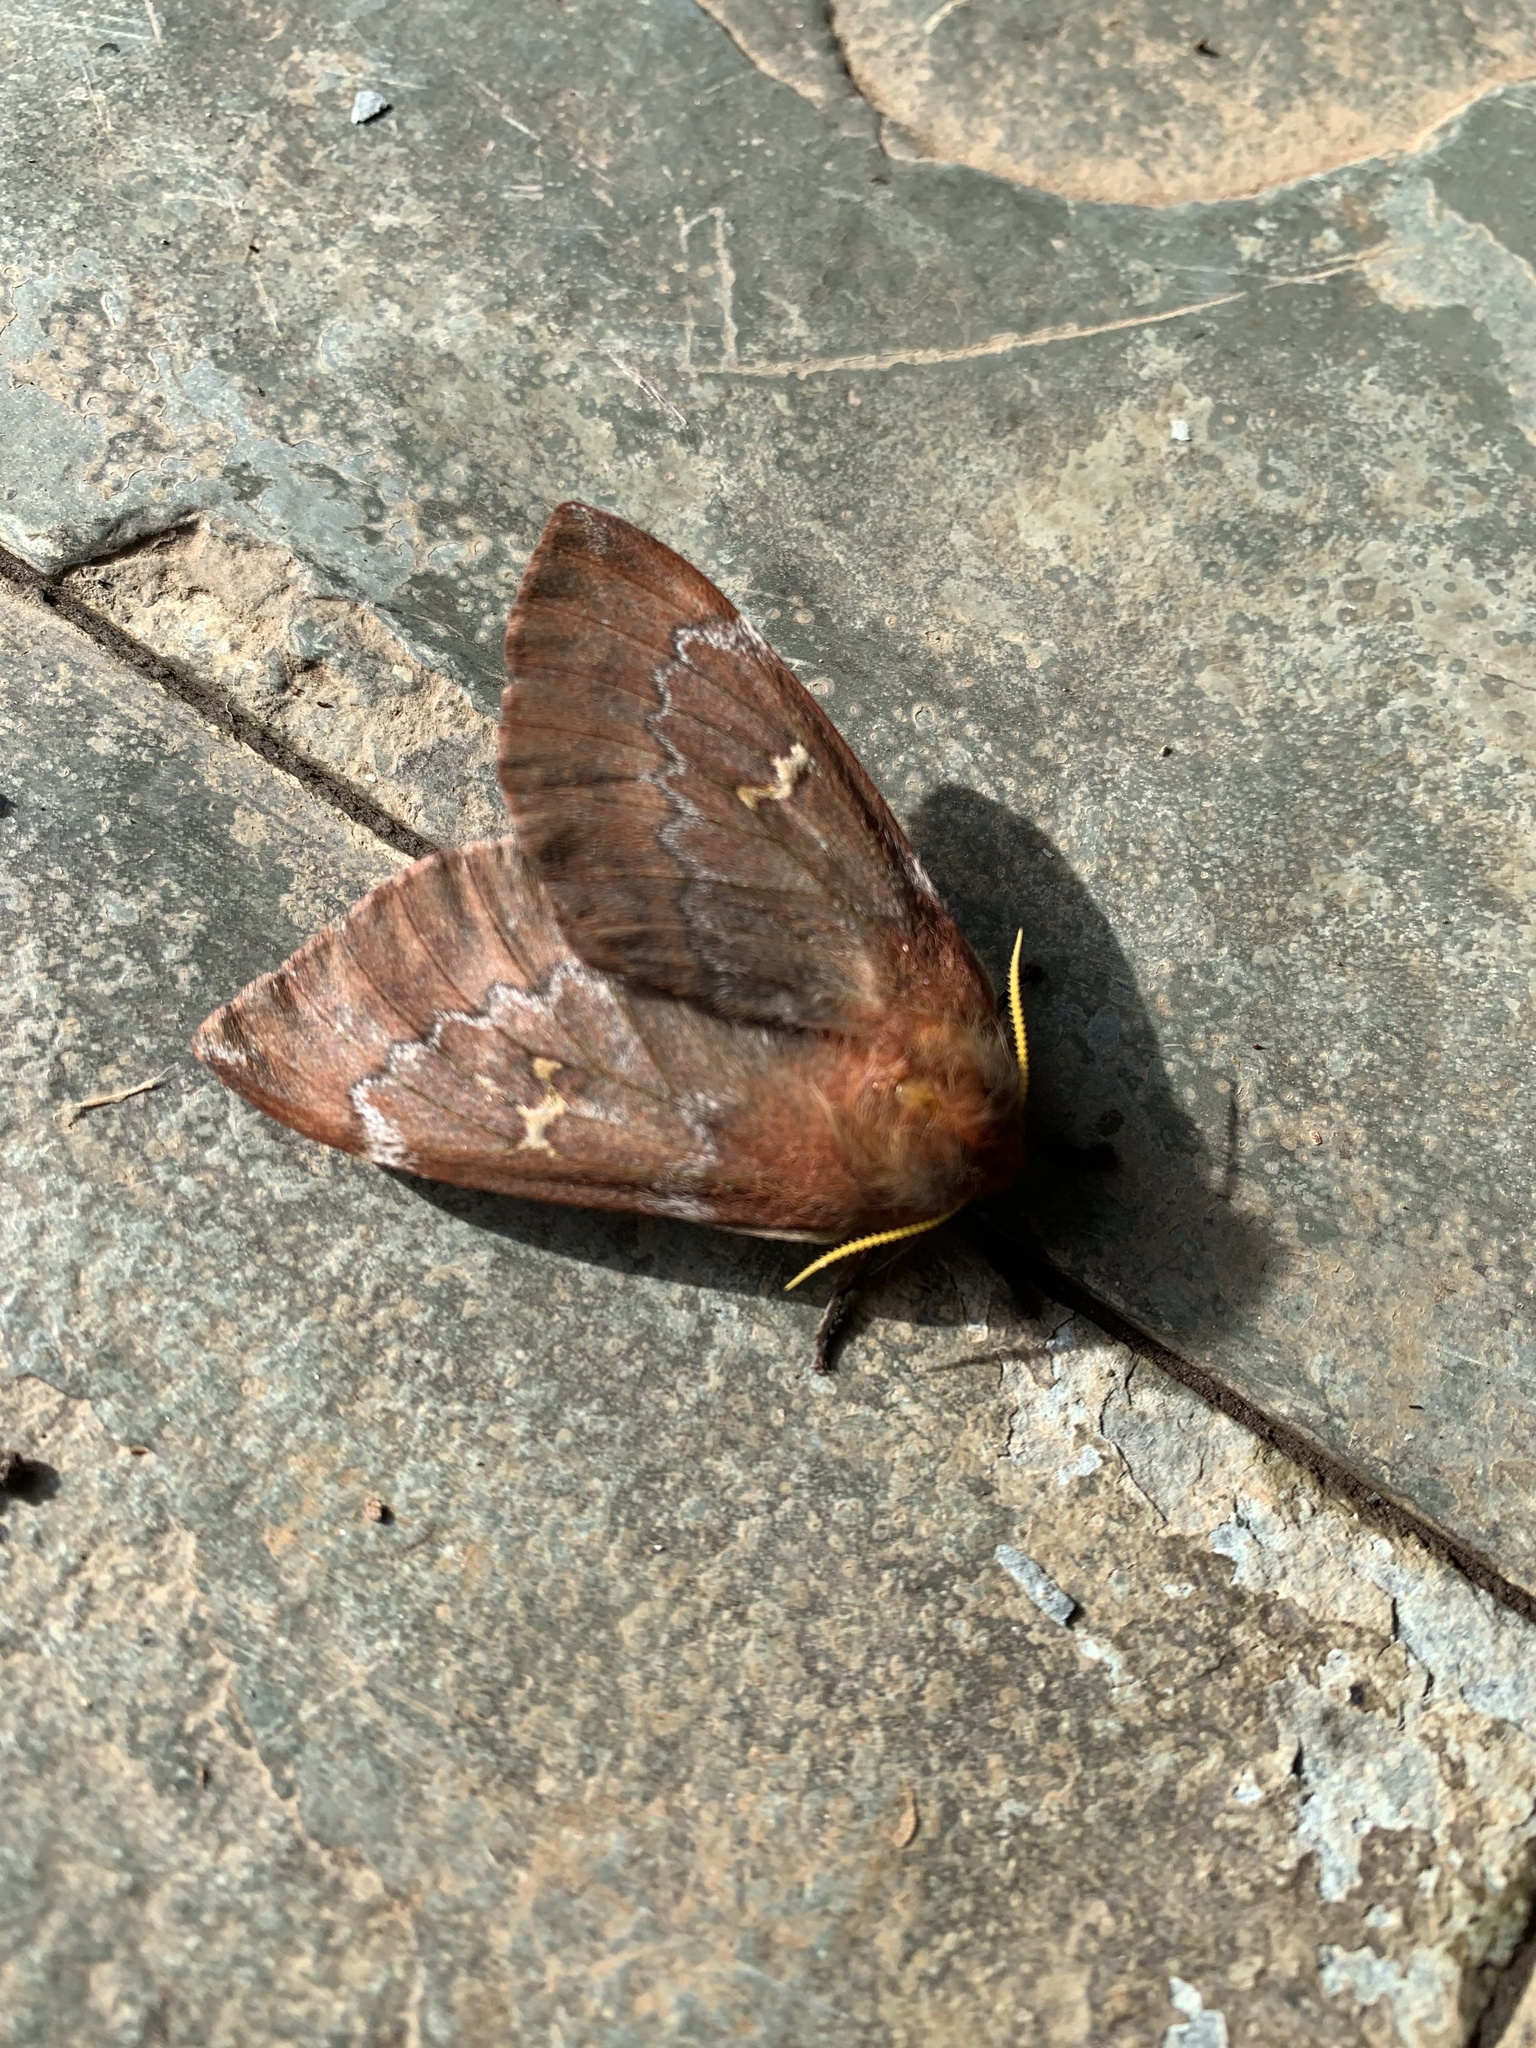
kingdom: Animalia
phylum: Arthropoda
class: Insecta
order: Lepidoptera
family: Saturniidae
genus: Ormiscodes
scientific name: Ormiscodes joiceyi
